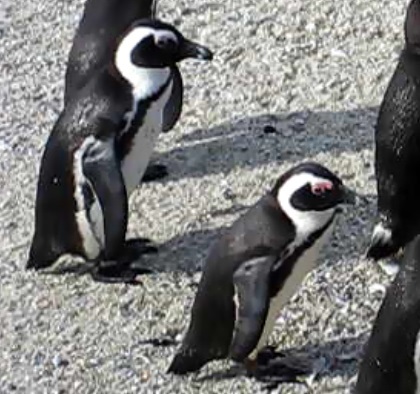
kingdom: Animalia
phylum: Chordata
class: Aves
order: Sphenisciformes
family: Spheniscidae
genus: Spheniscus
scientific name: Spheniscus demersus
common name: African penguin
